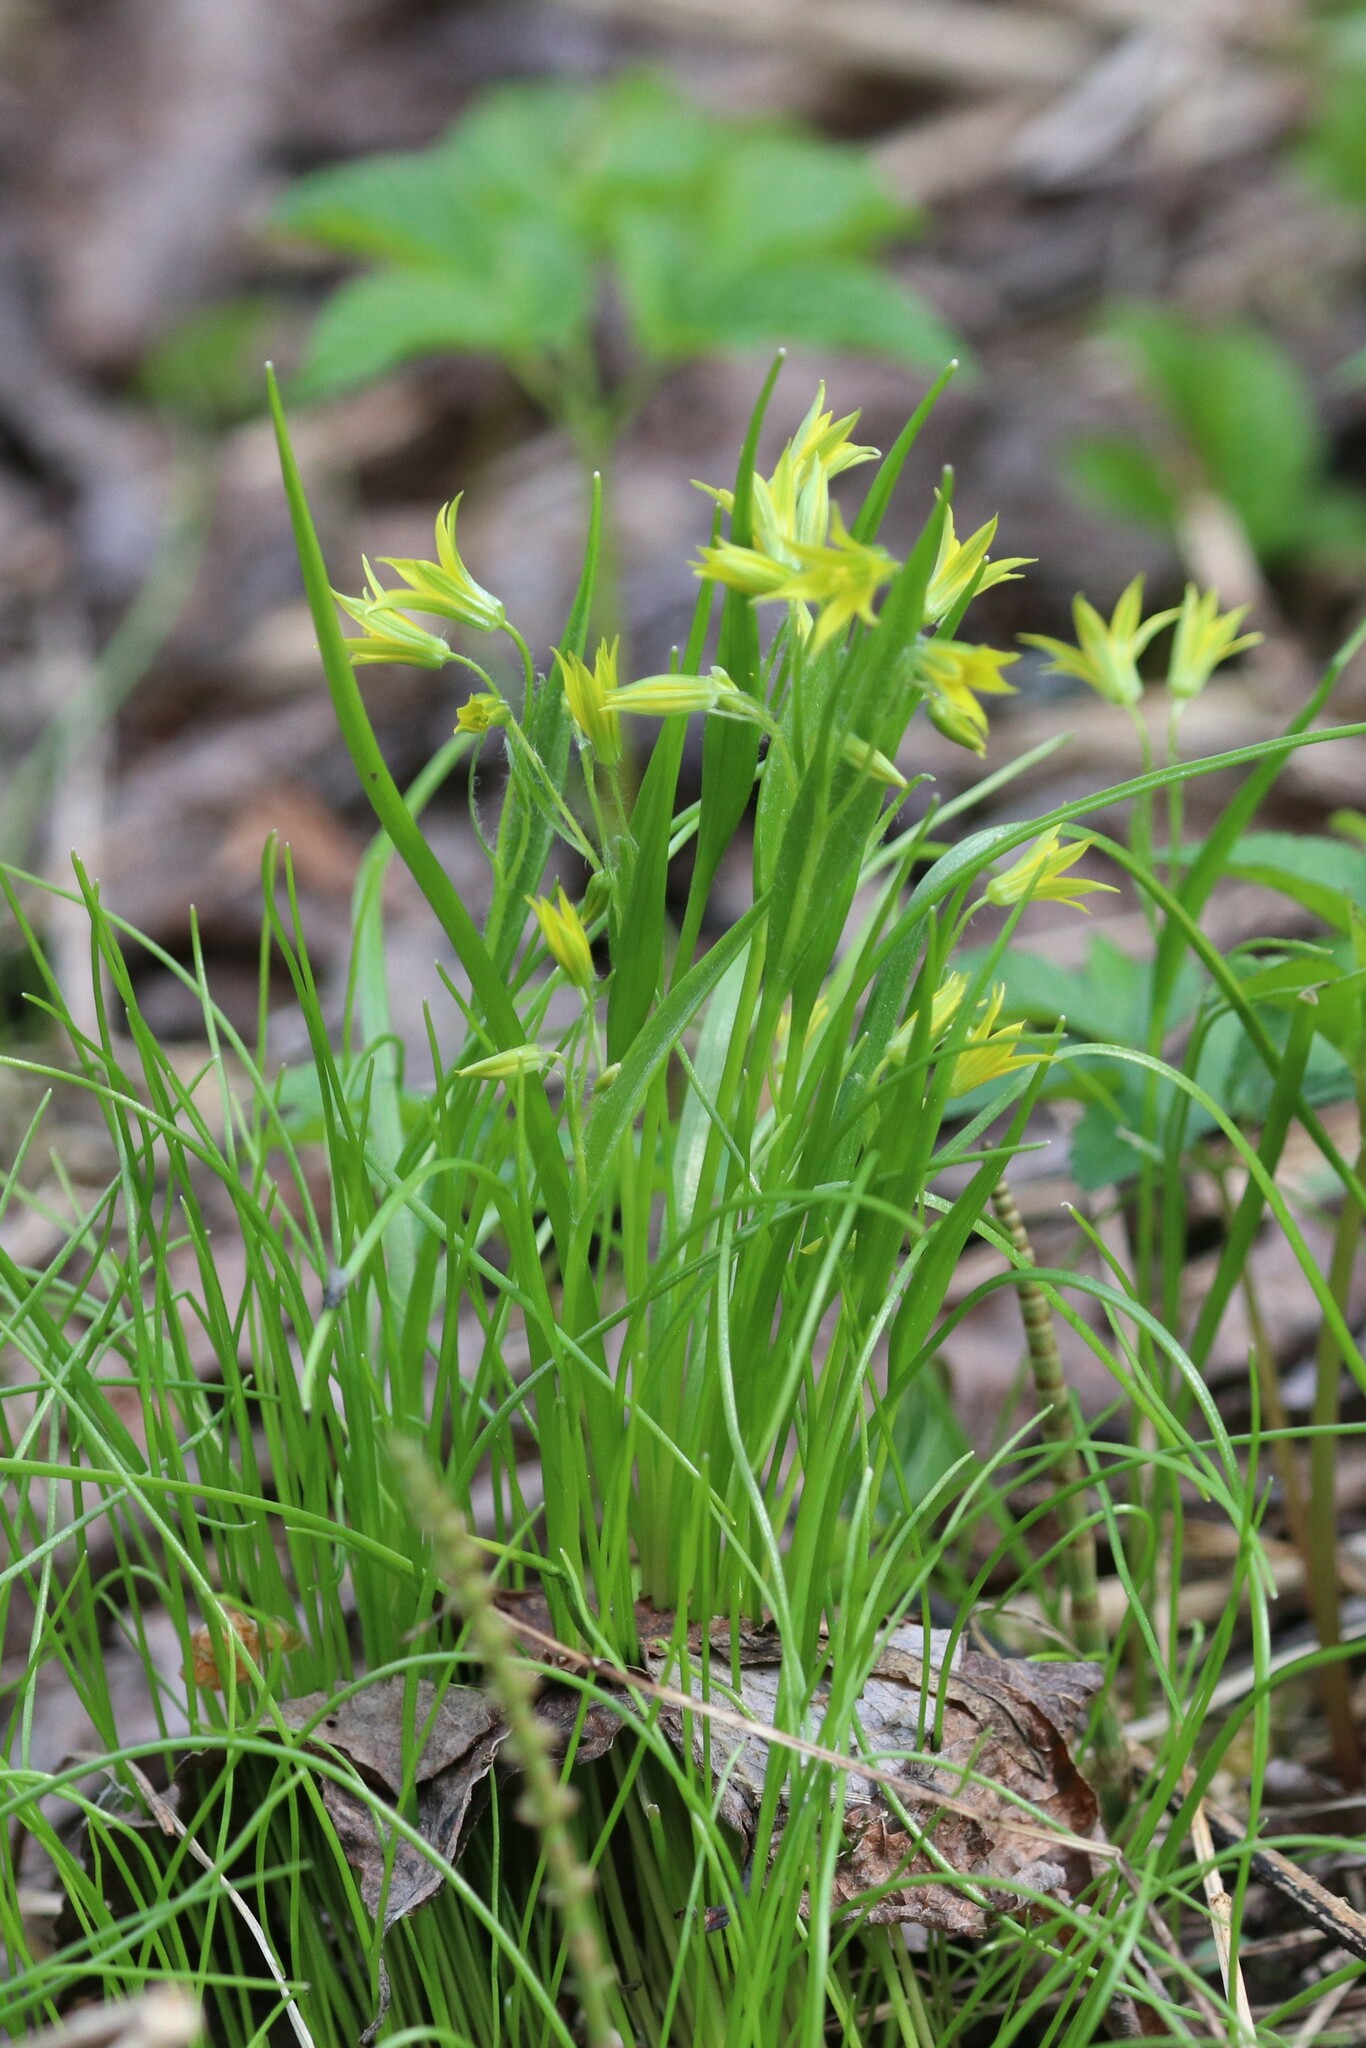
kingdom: Plantae
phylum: Tracheophyta
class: Liliopsida
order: Liliales
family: Liliaceae
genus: Gagea
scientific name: Gagea minima
